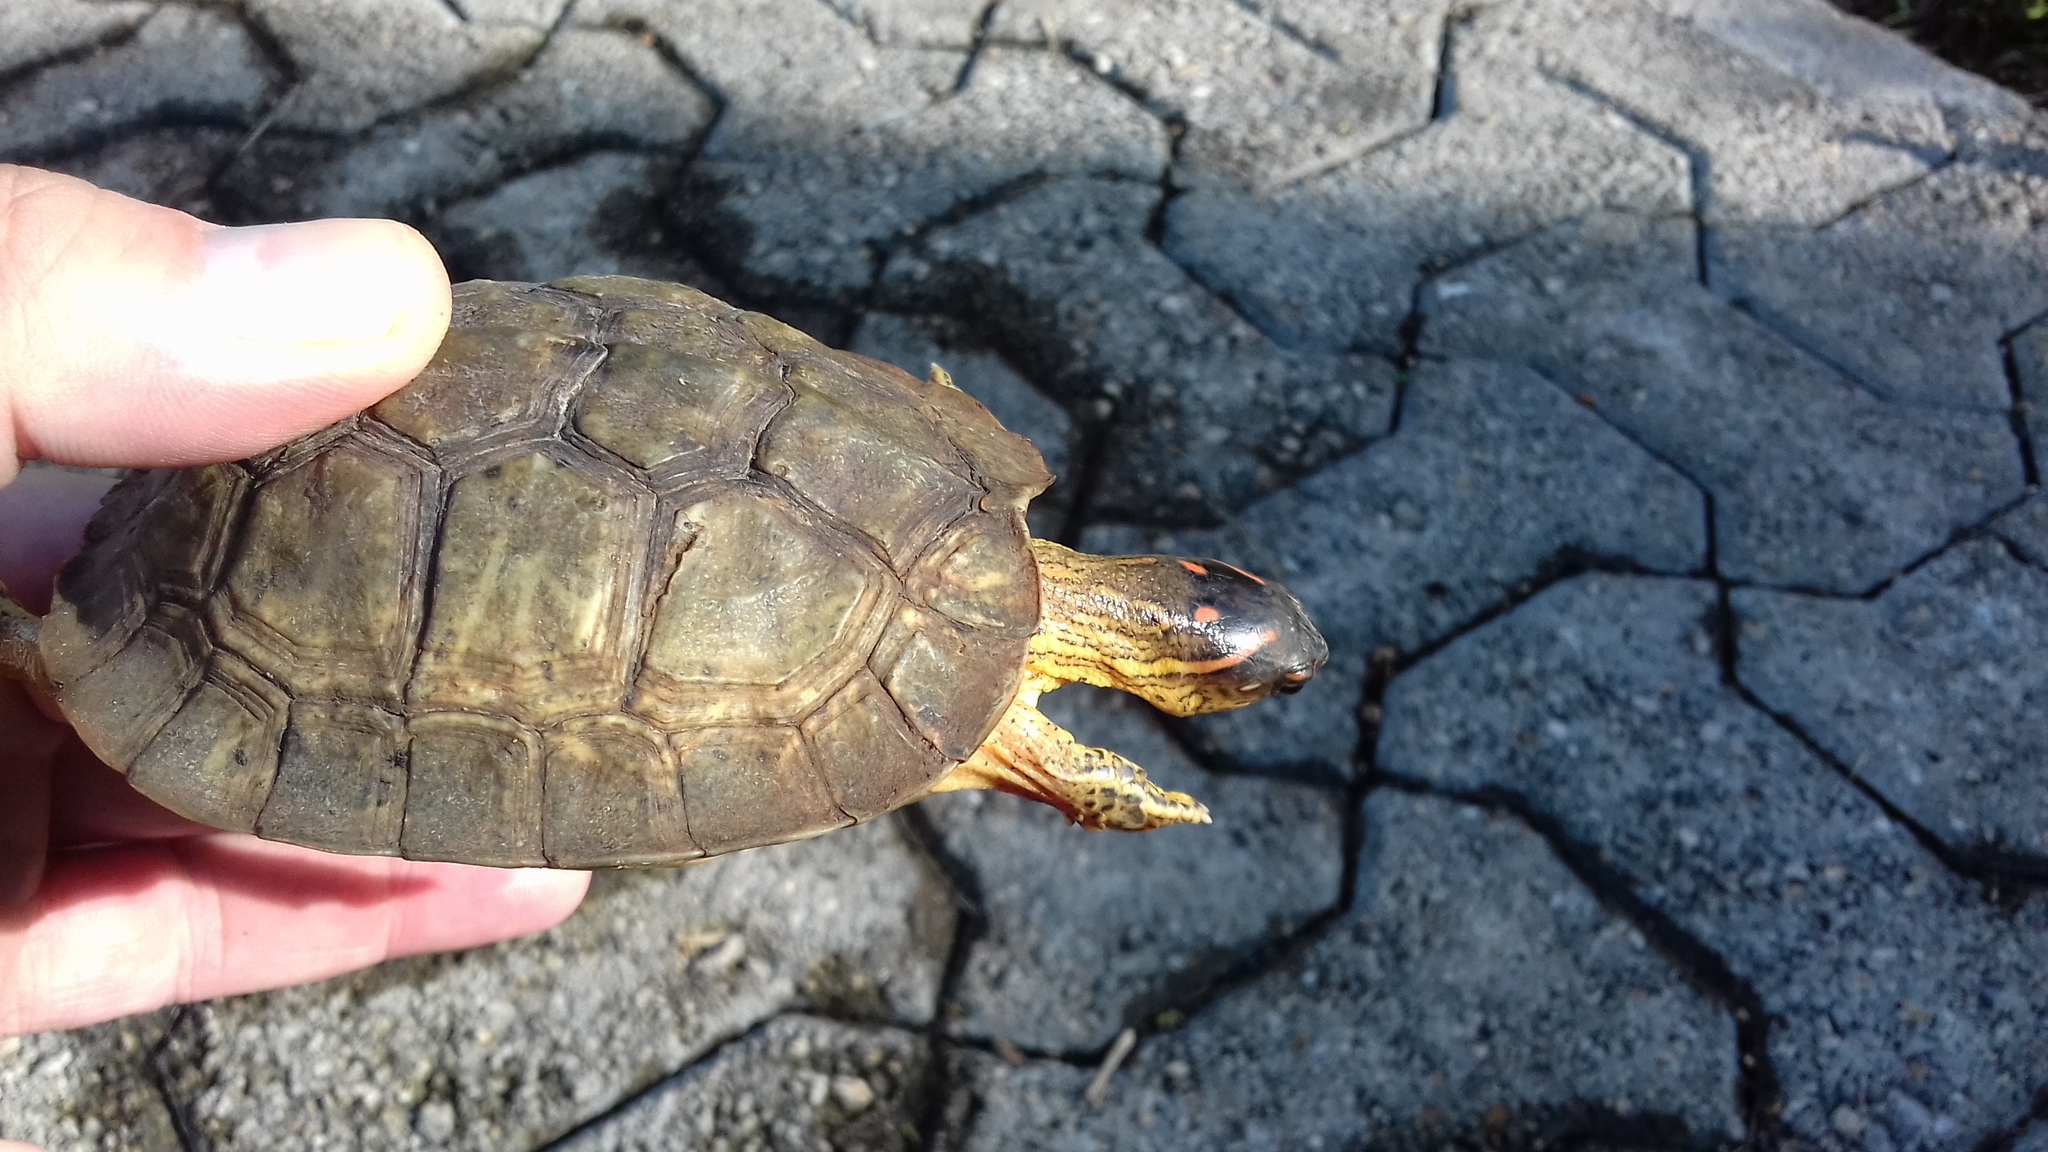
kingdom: Animalia
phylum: Chordata
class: Testudines
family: Geoemydidae
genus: Rhinoclemmys
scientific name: Rhinoclemmys areolata
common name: Furrowed wood turtle
